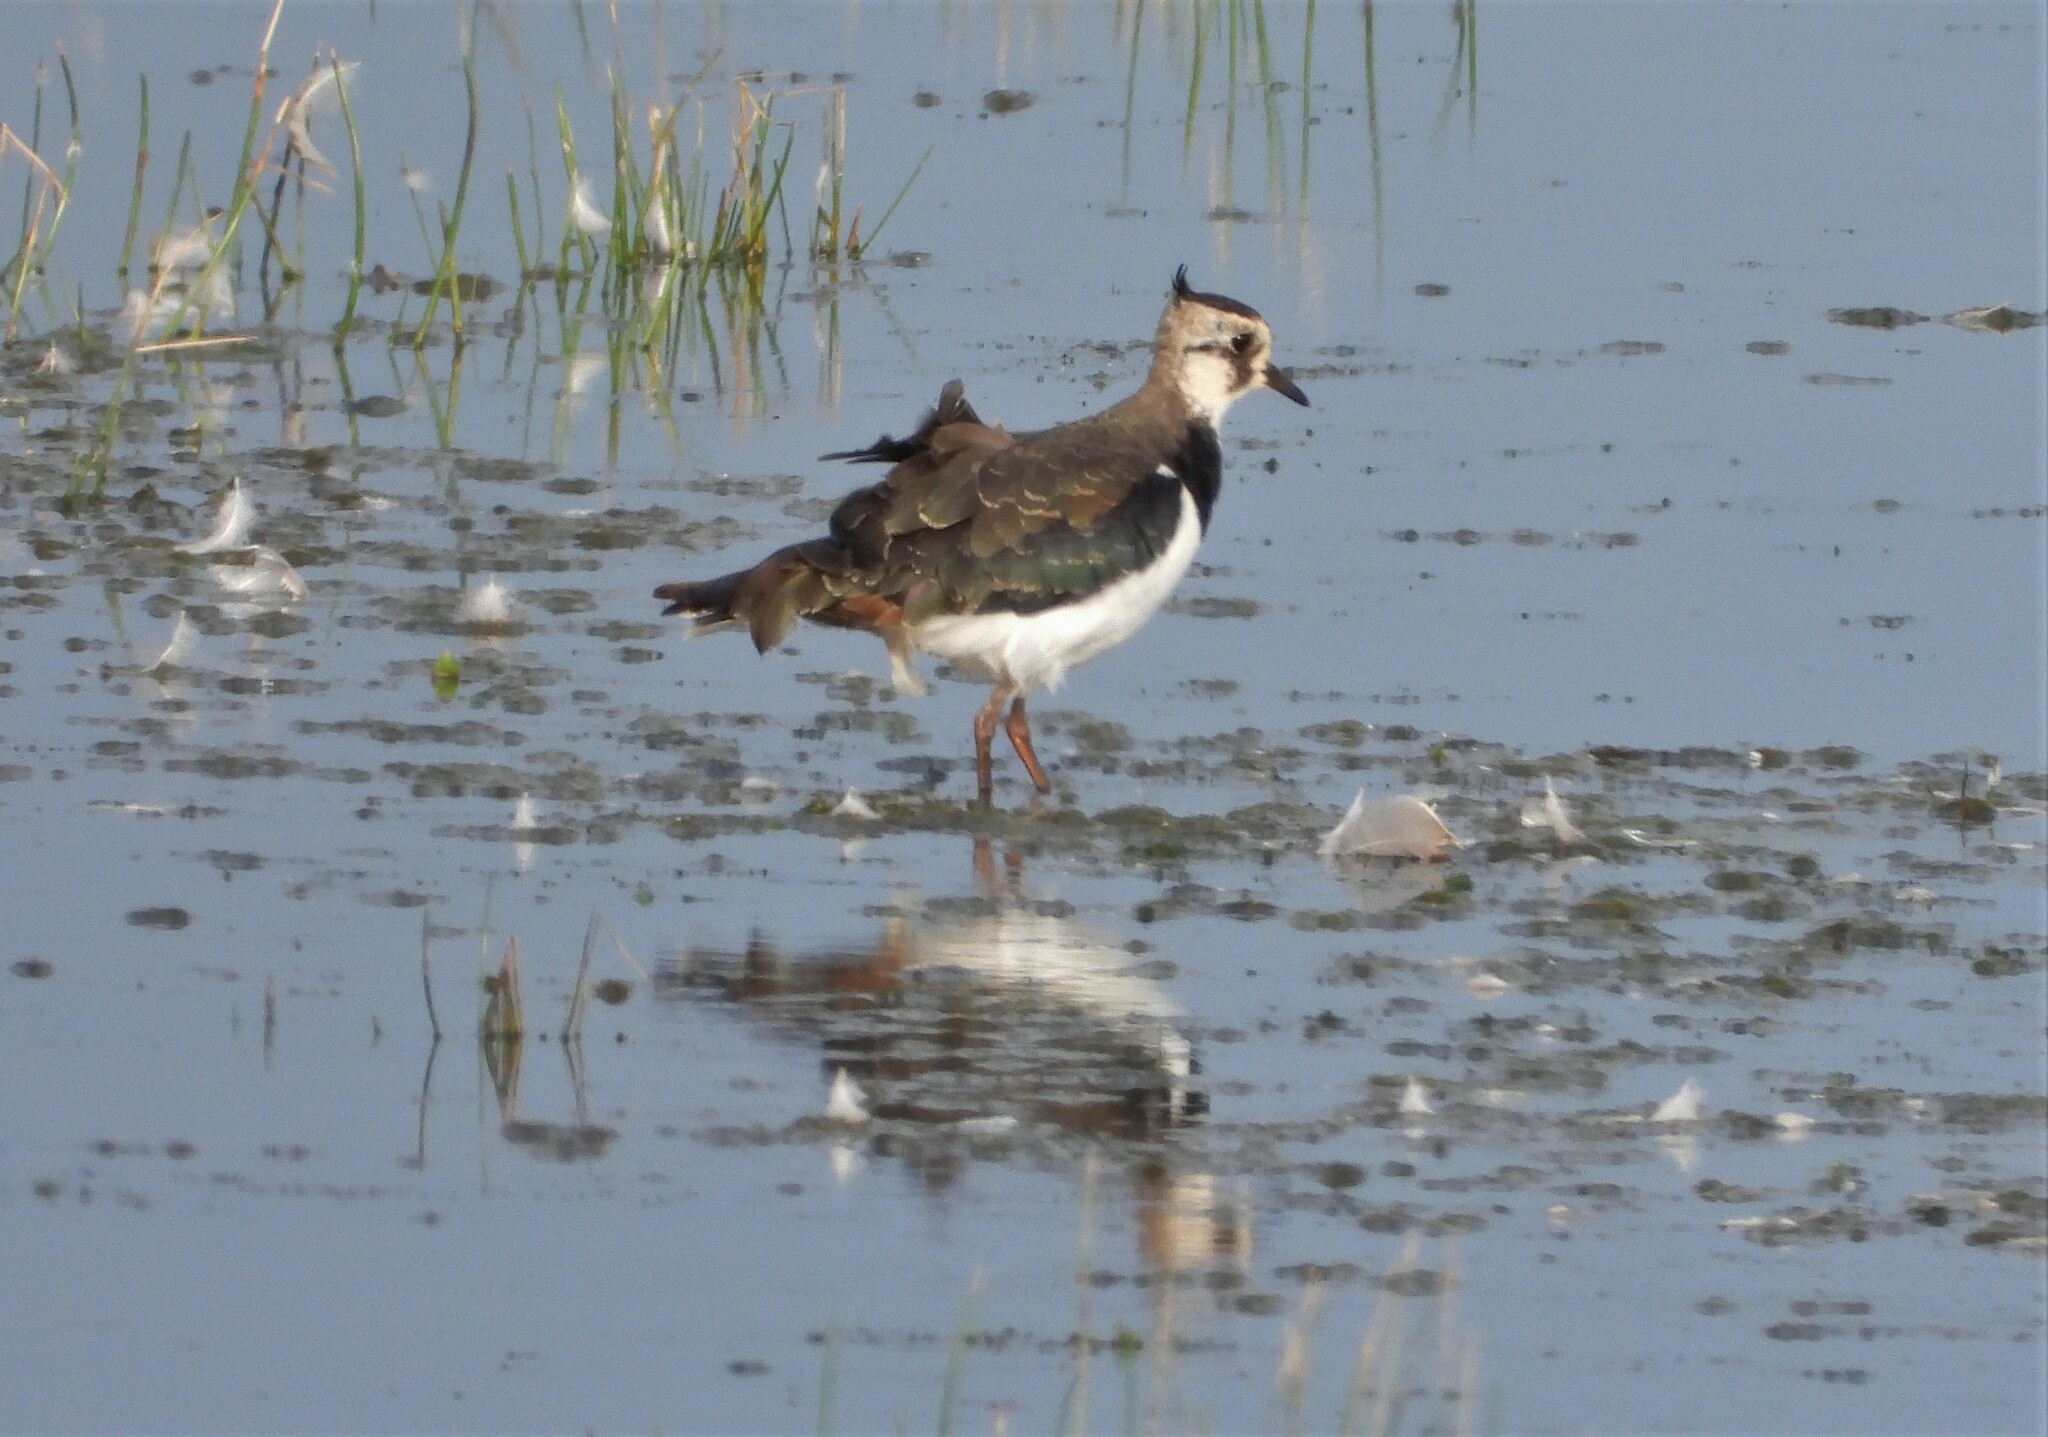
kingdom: Animalia
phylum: Chordata
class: Aves
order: Charadriiformes
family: Charadriidae
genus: Vanellus
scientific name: Vanellus vanellus
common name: Northern lapwing
